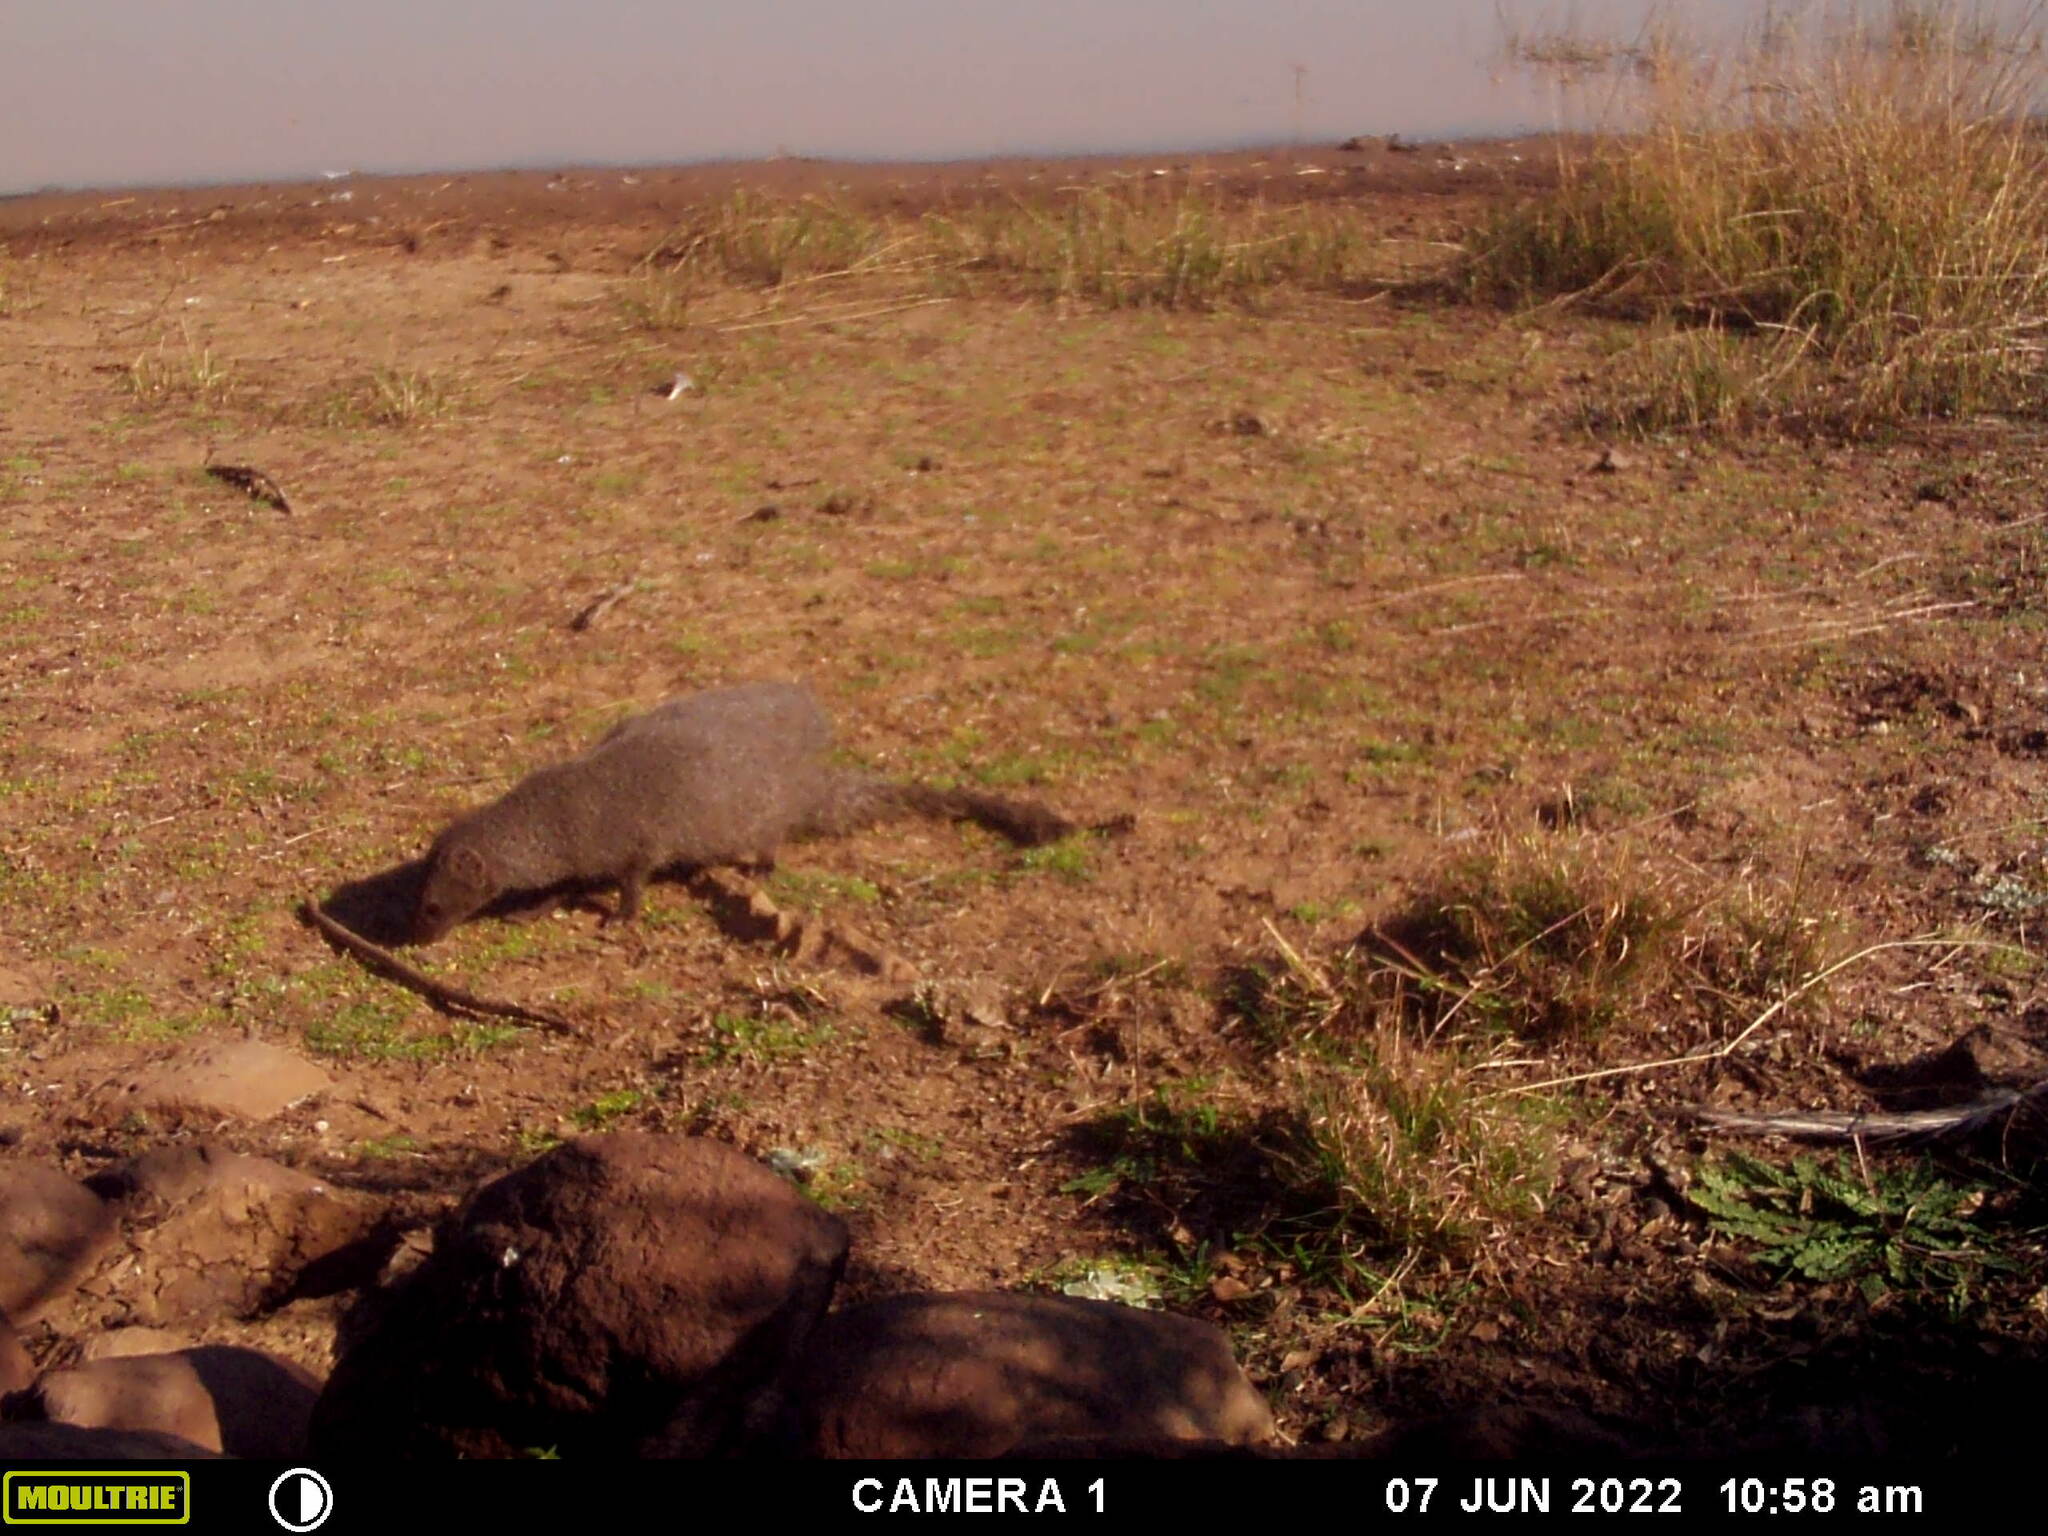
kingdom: Animalia
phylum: Chordata
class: Mammalia
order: Carnivora
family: Herpestidae
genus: Galerella
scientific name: Galerella pulverulenta
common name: Cape gray mongoose
